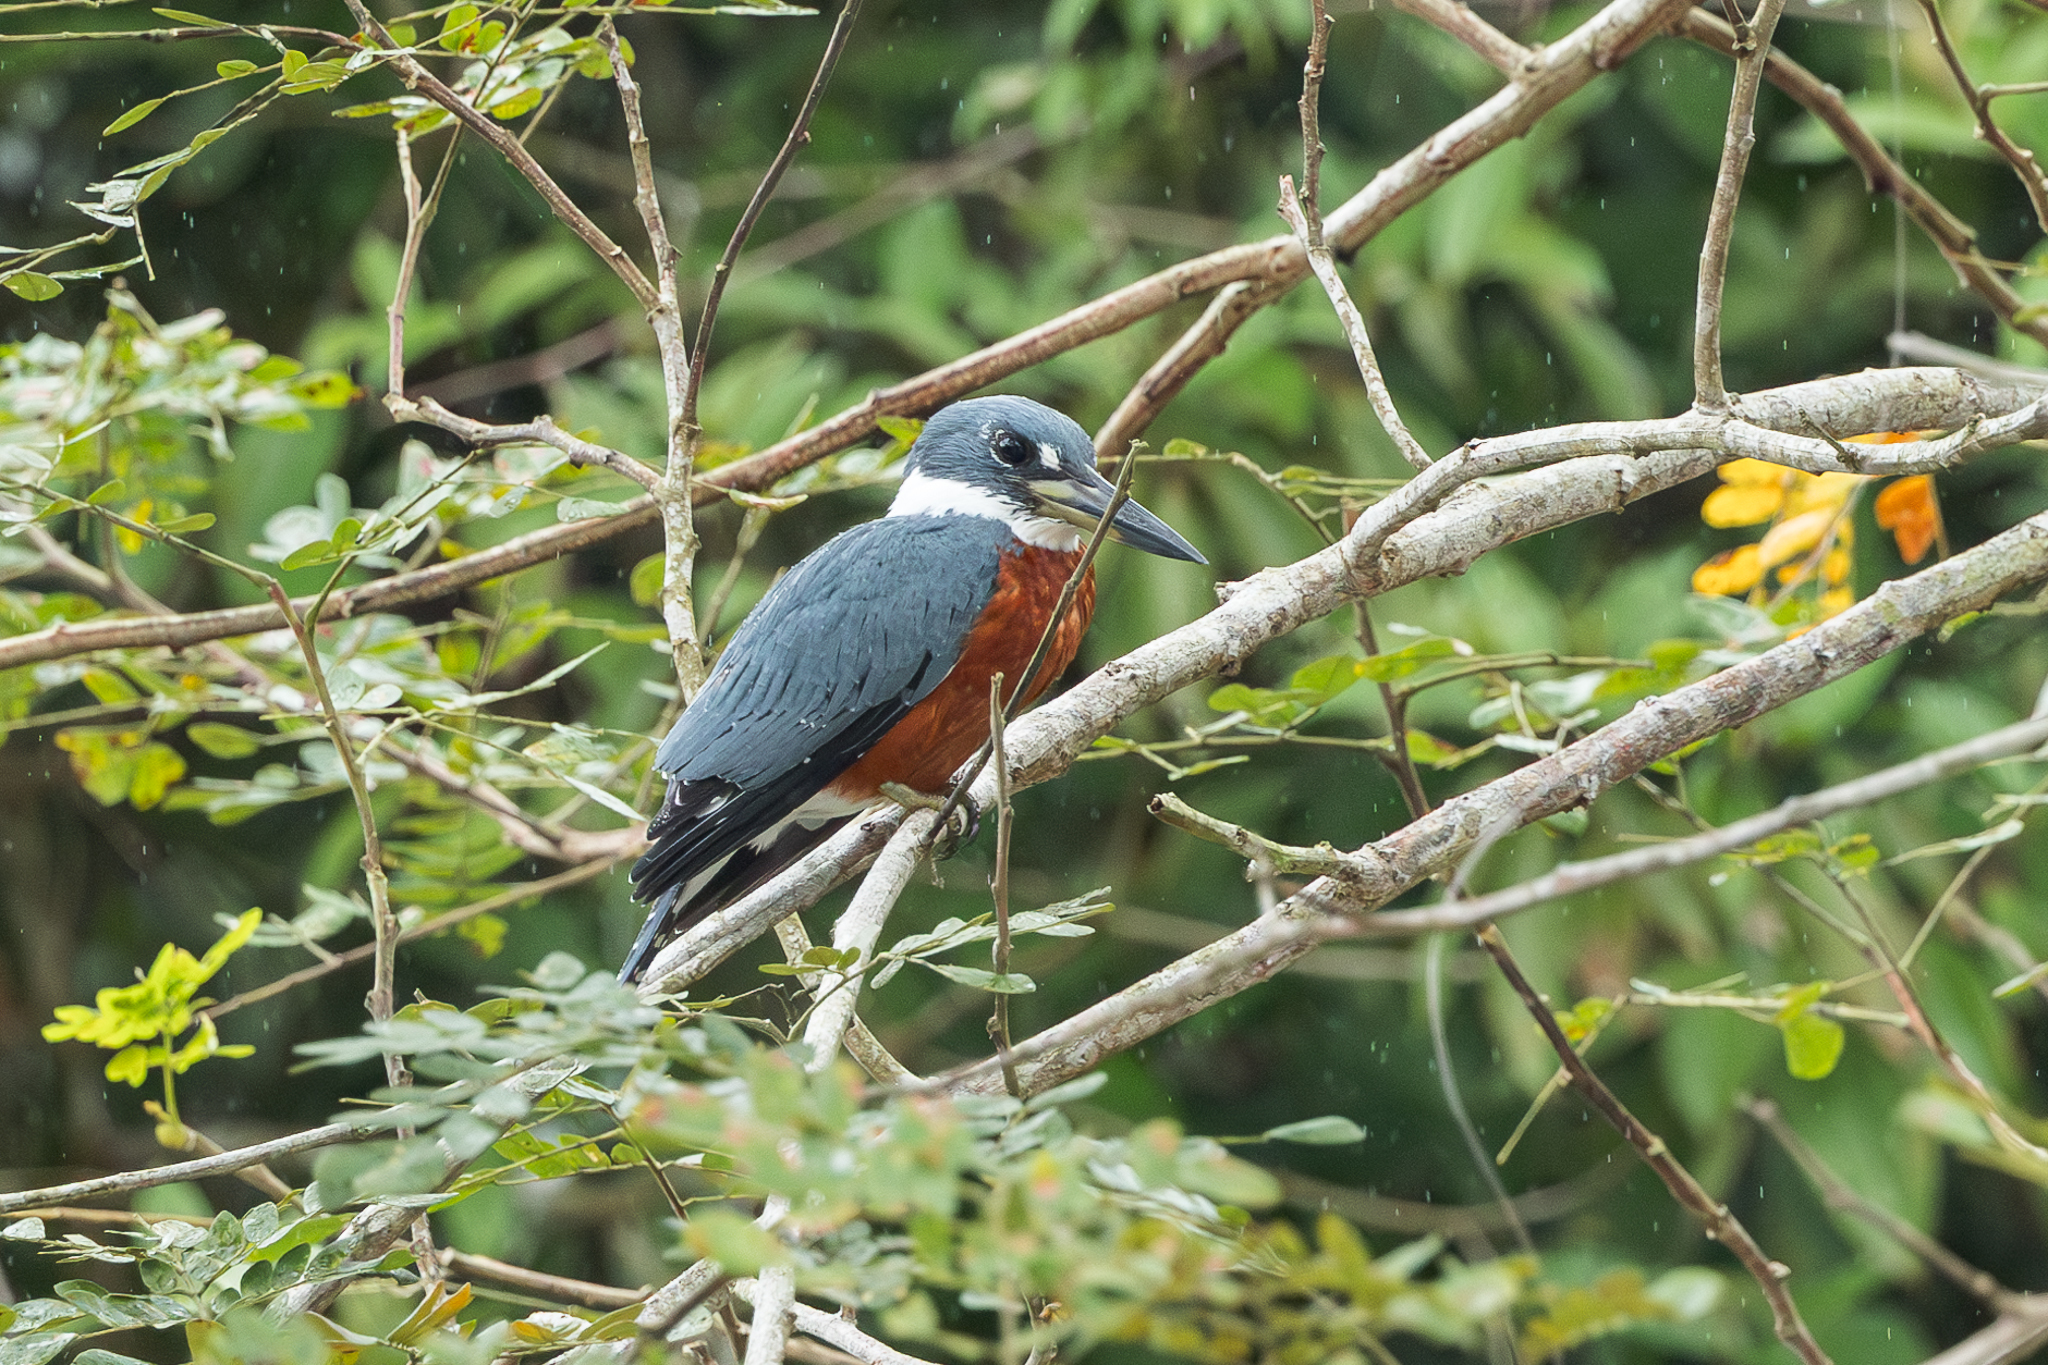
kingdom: Animalia
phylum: Chordata
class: Aves
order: Coraciiformes
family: Alcedinidae
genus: Megaceryle
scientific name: Megaceryle torquata
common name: Ringed kingfisher
